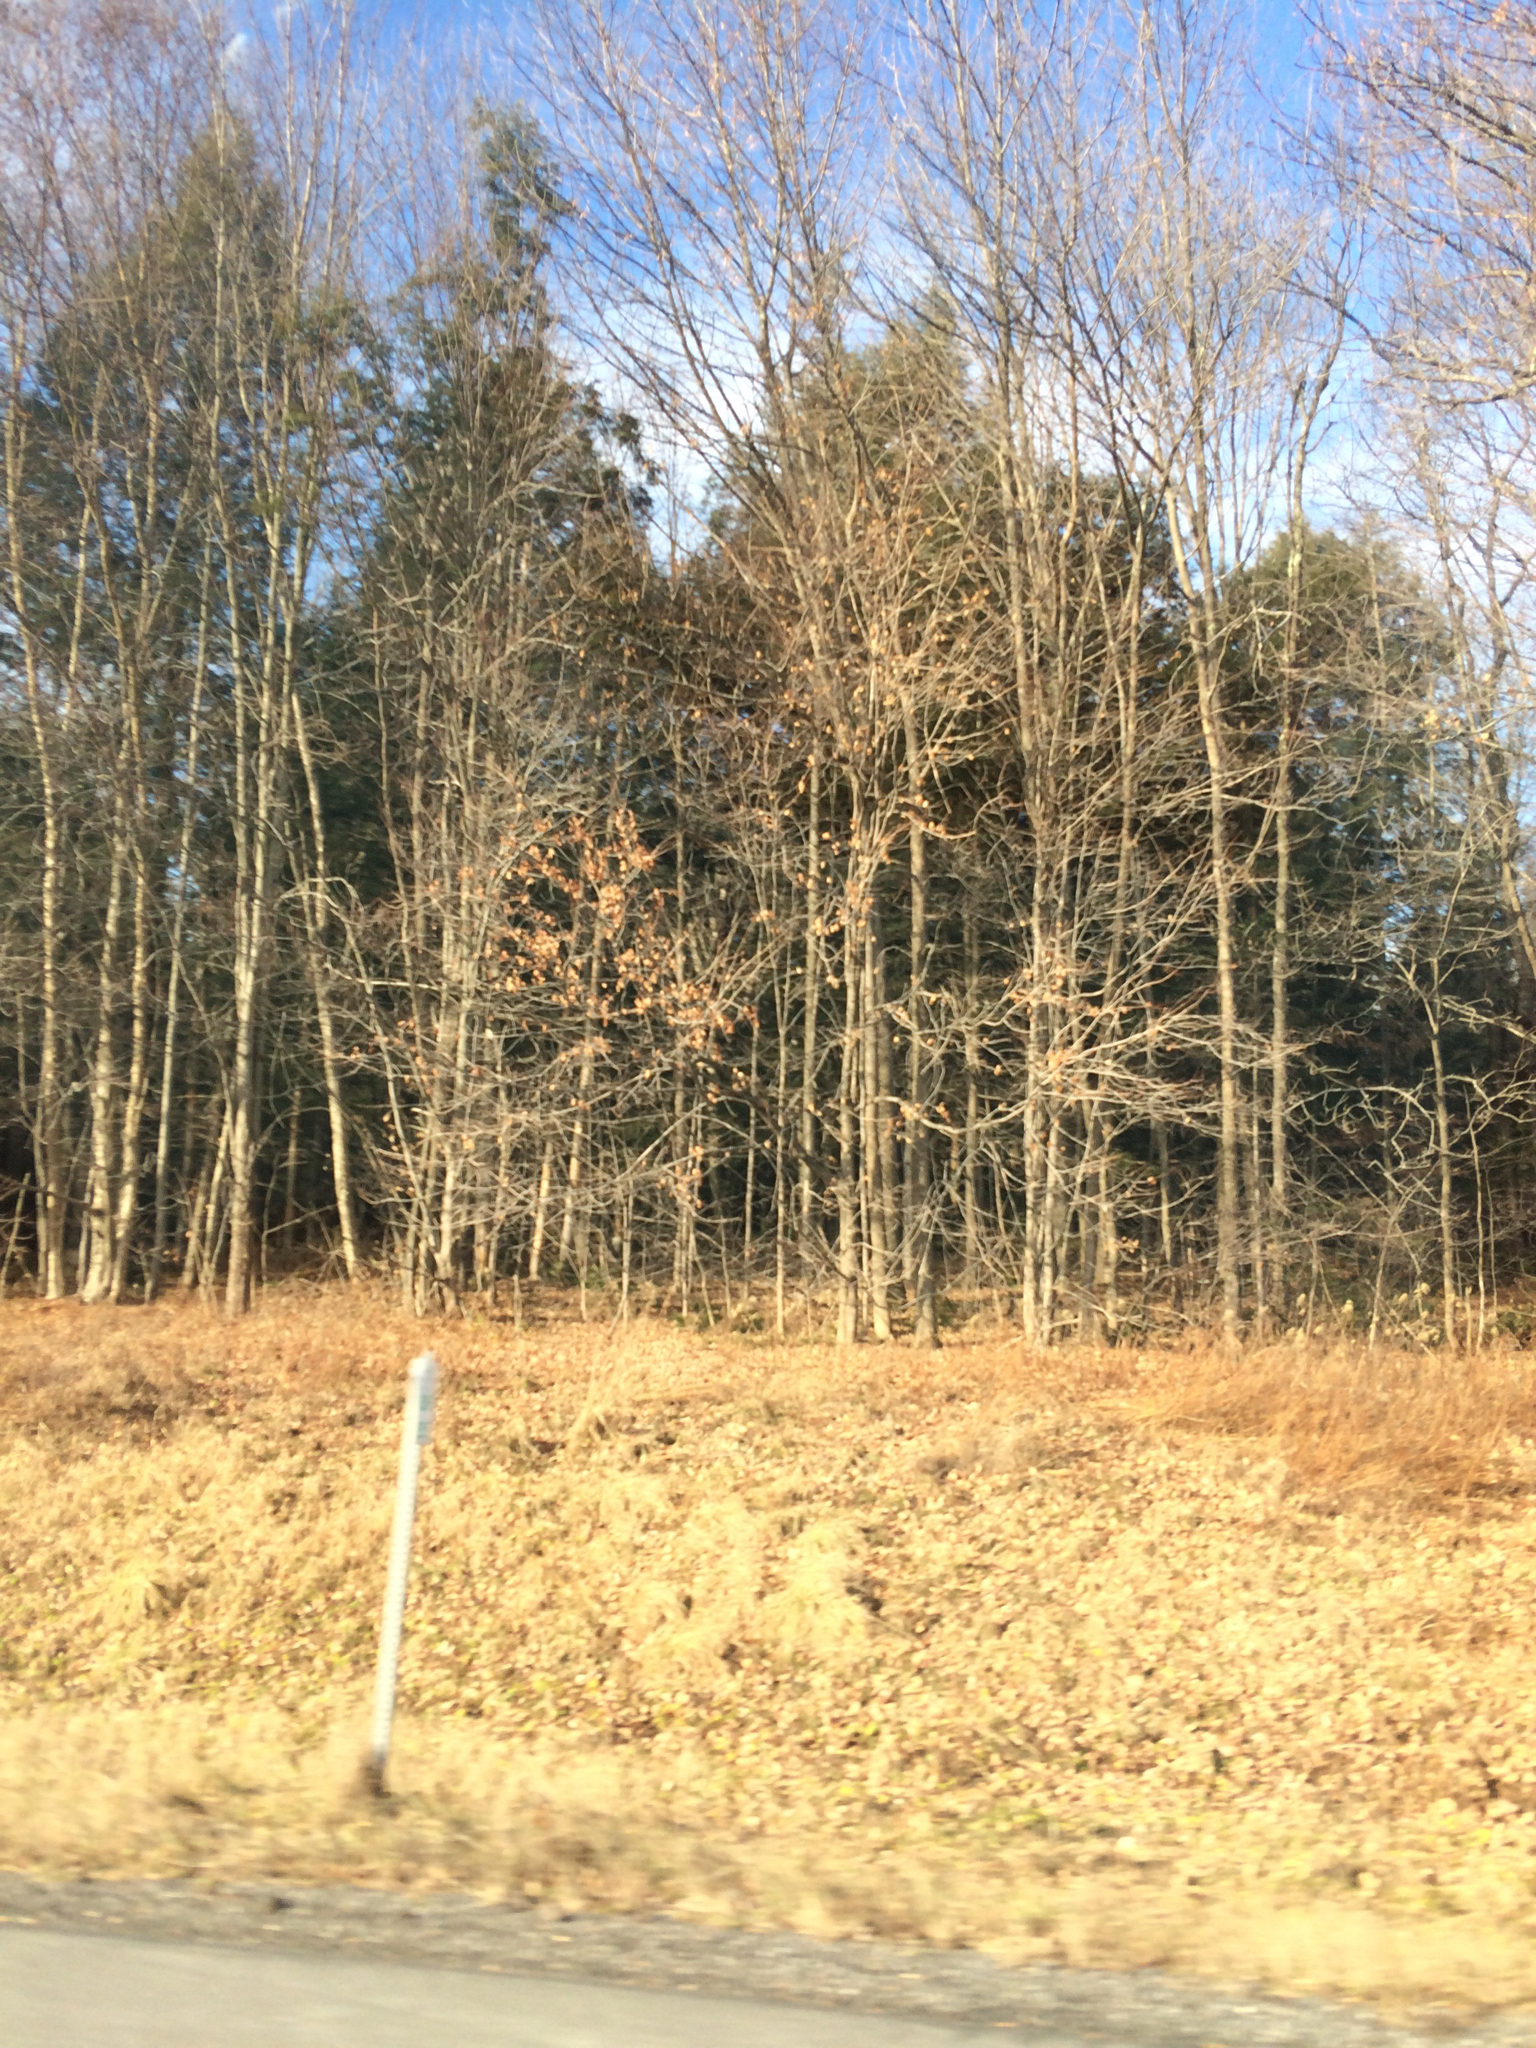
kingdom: Plantae
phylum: Tracheophyta
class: Magnoliopsida
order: Fagales
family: Fagaceae
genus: Fagus
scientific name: Fagus grandifolia
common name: American beech
